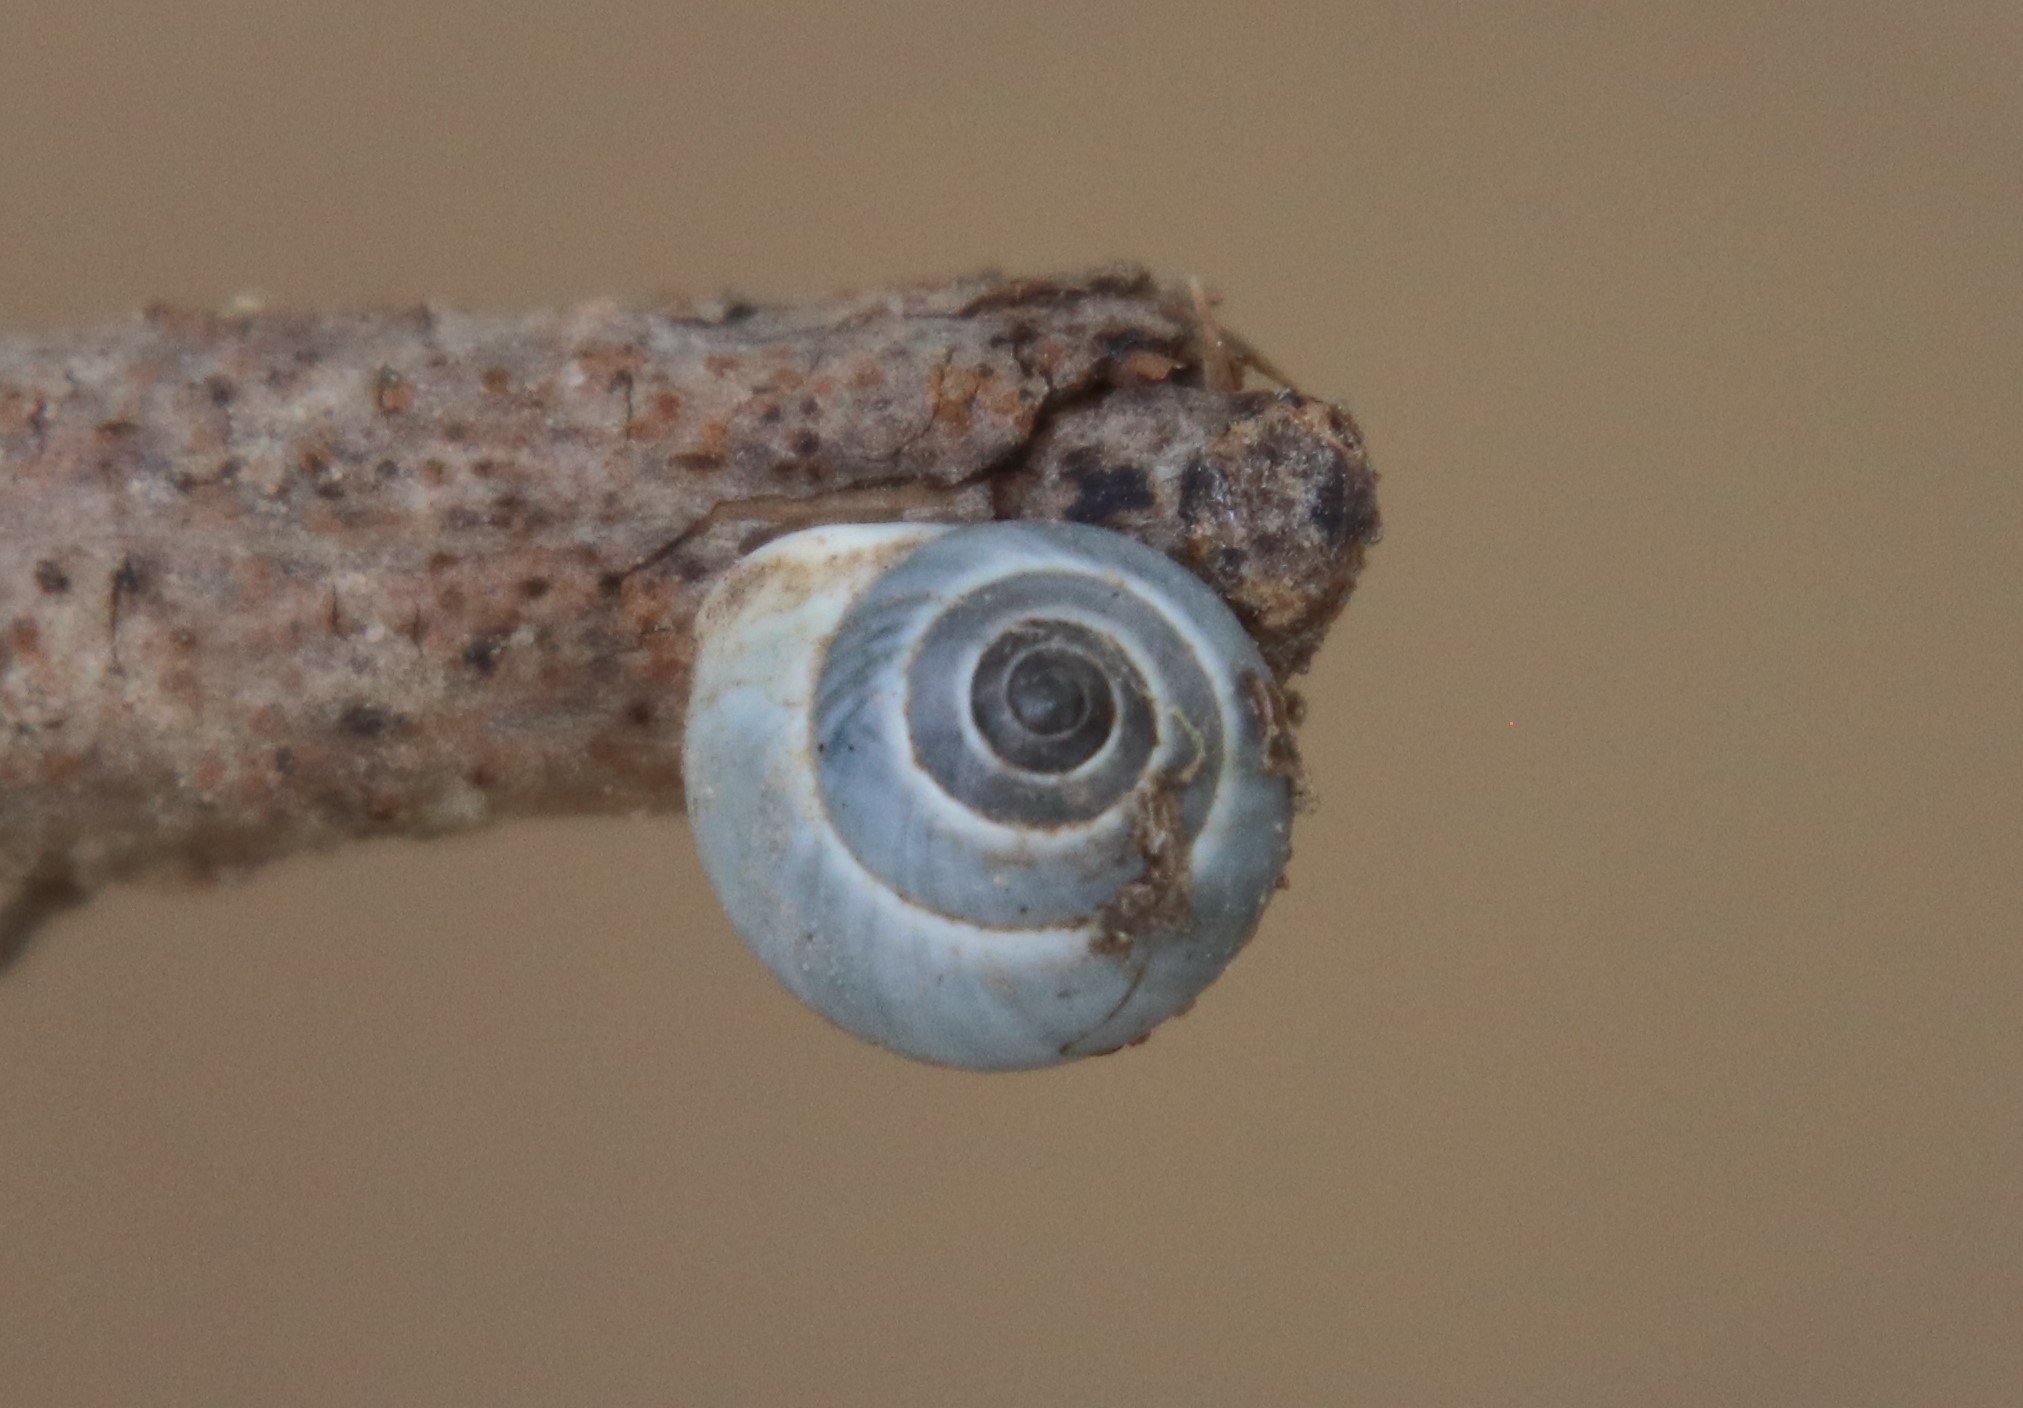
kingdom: Animalia
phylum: Mollusca
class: Gastropoda
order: Cycloneritida
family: Helicinidae
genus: Helicina
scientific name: Helicina orbiculata
